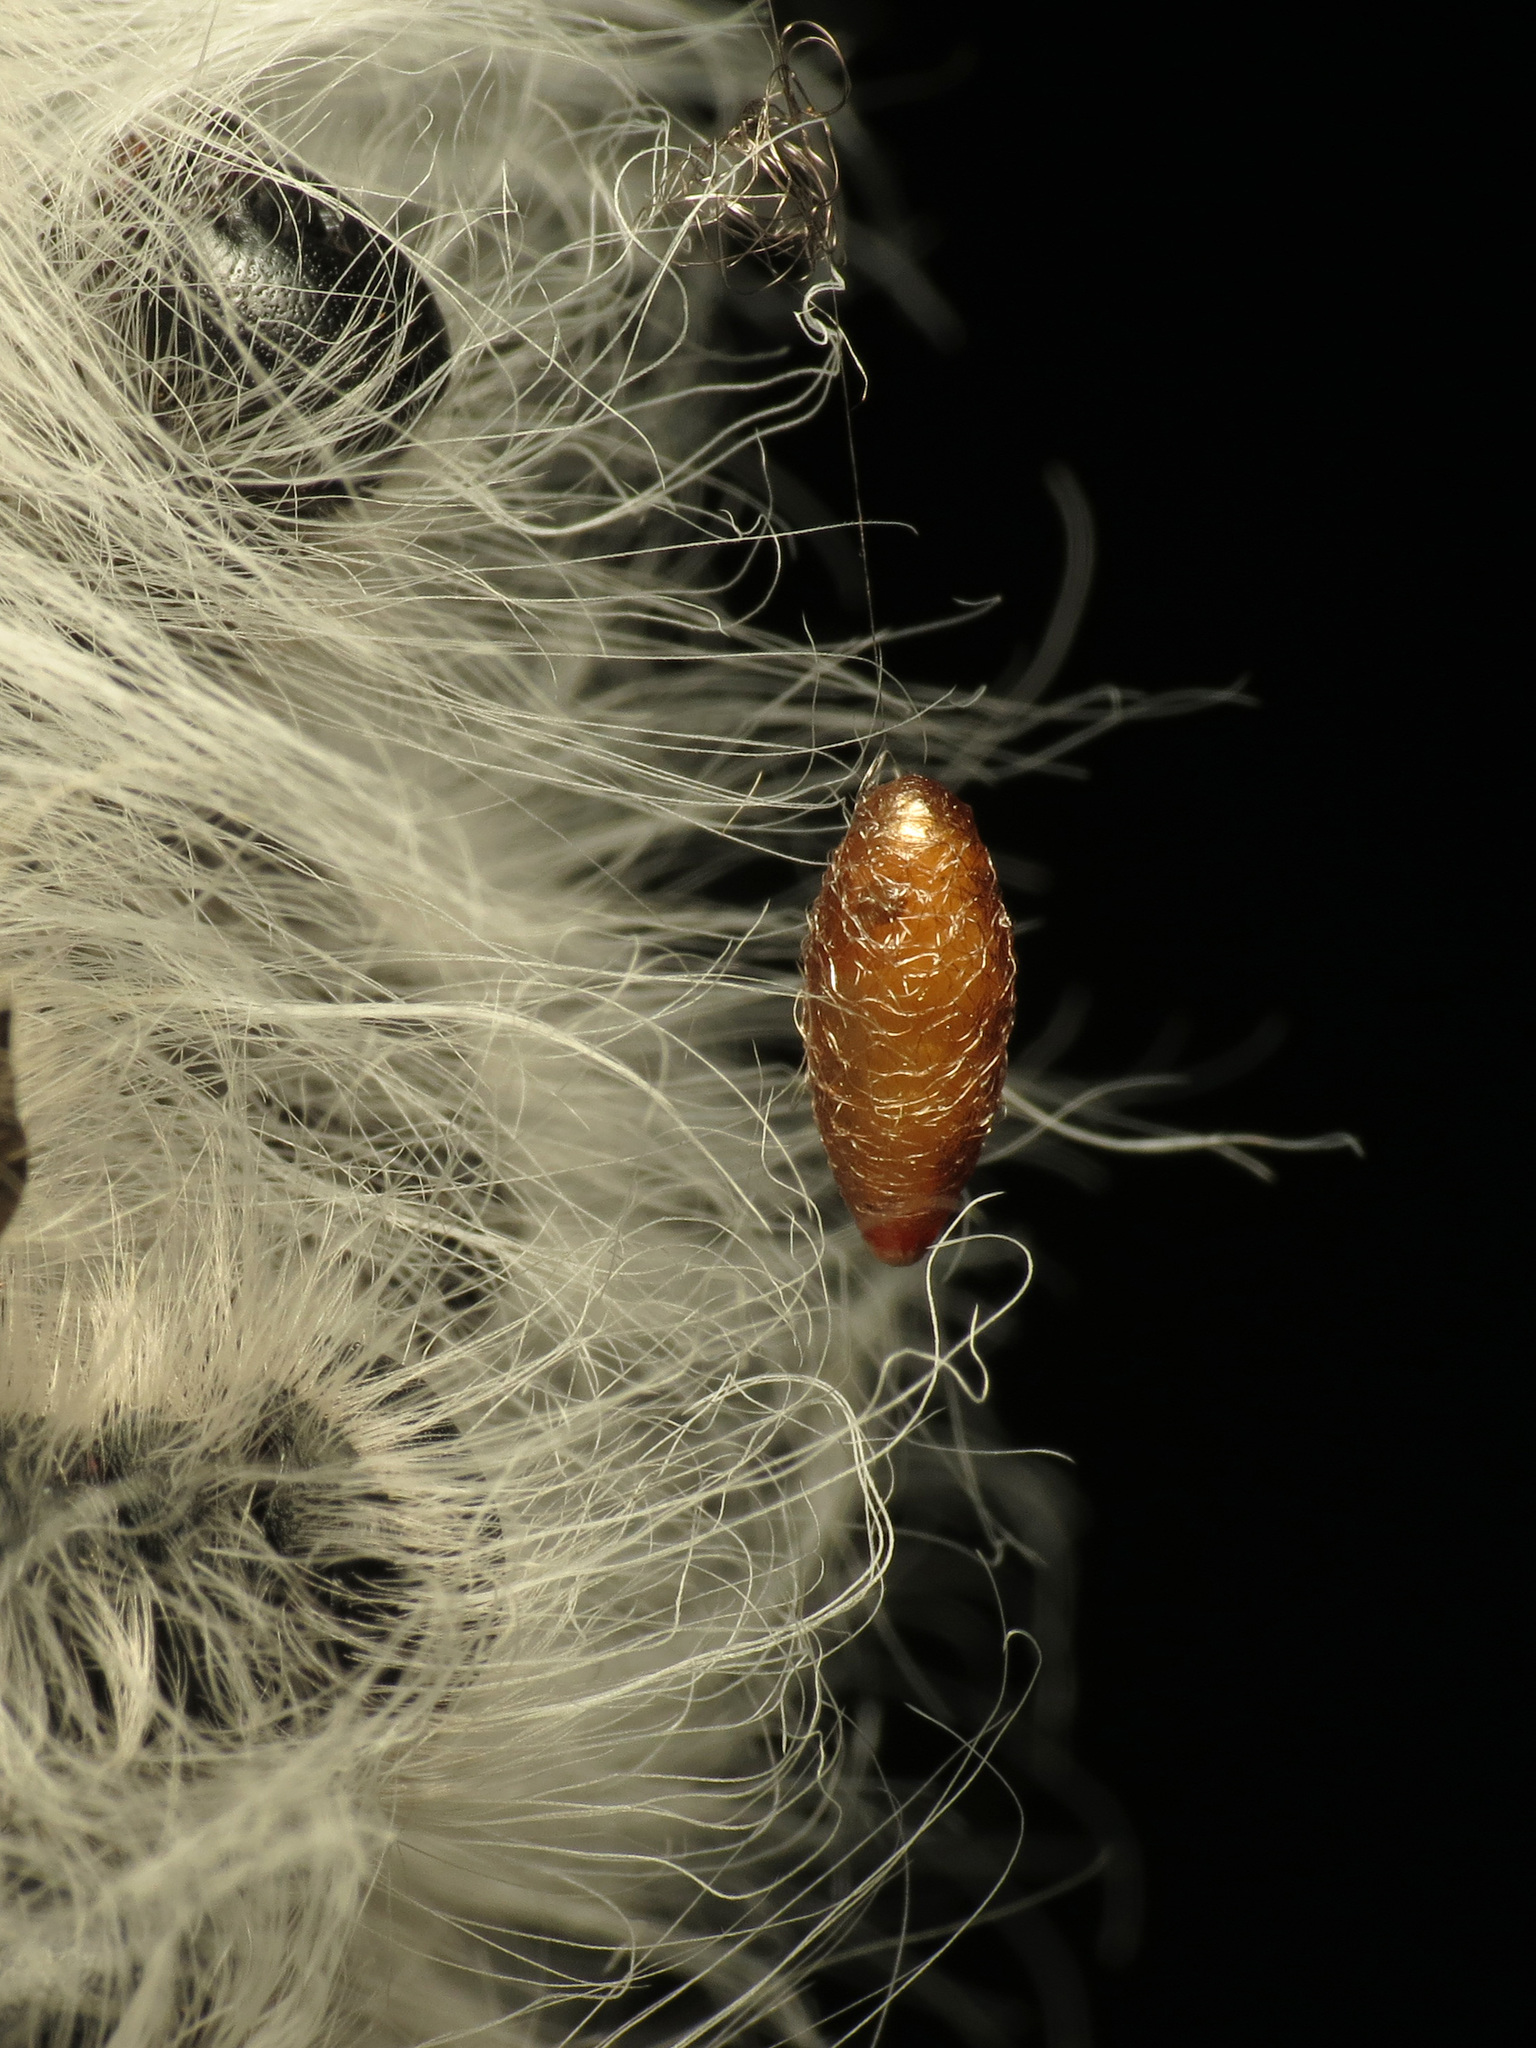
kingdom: Animalia
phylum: Arthropoda
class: Insecta
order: Hymenoptera
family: Braconidae
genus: Meteorus
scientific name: Meteorus
